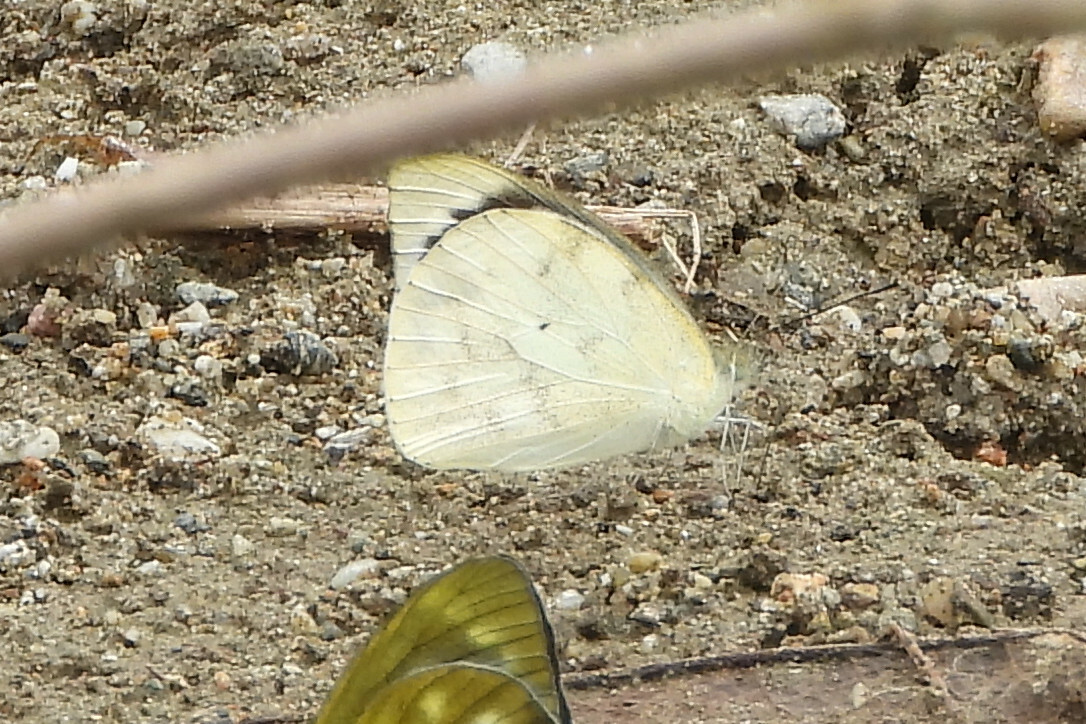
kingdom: Animalia
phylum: Arthropoda
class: Insecta
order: Lepidoptera
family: Pieridae
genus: Appias
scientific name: Appias indra
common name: Plain puffin
